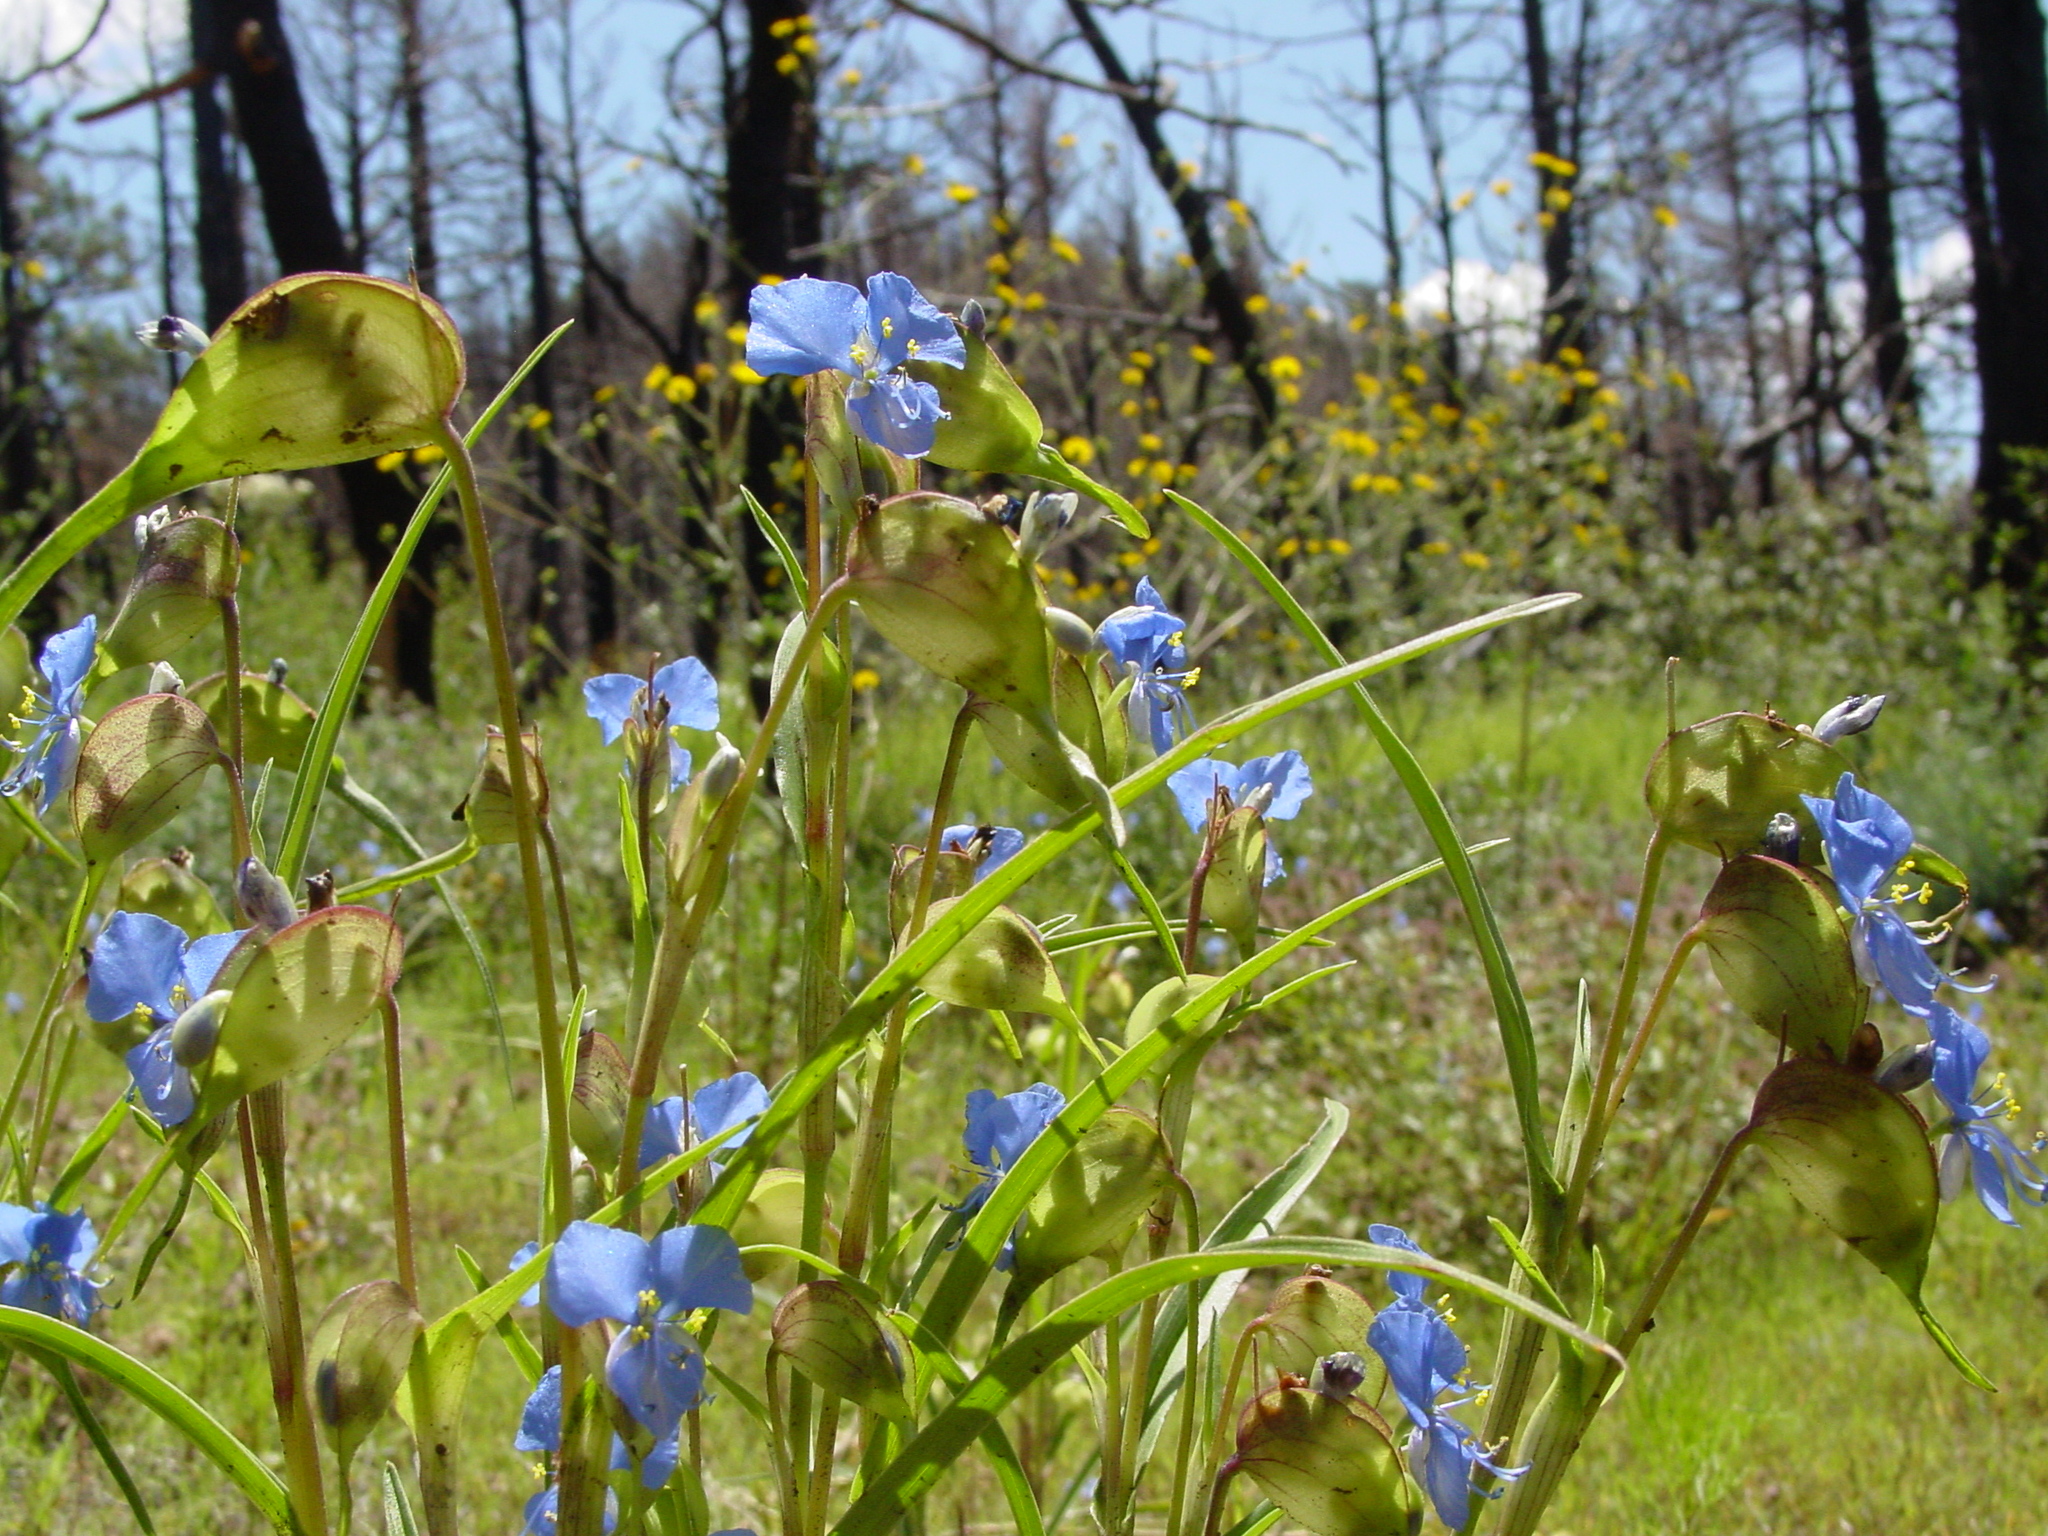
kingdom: Plantae
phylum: Tracheophyta
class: Liliopsida
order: Commelinales
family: Commelinaceae
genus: Commelina
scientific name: Commelina dianthifolia
